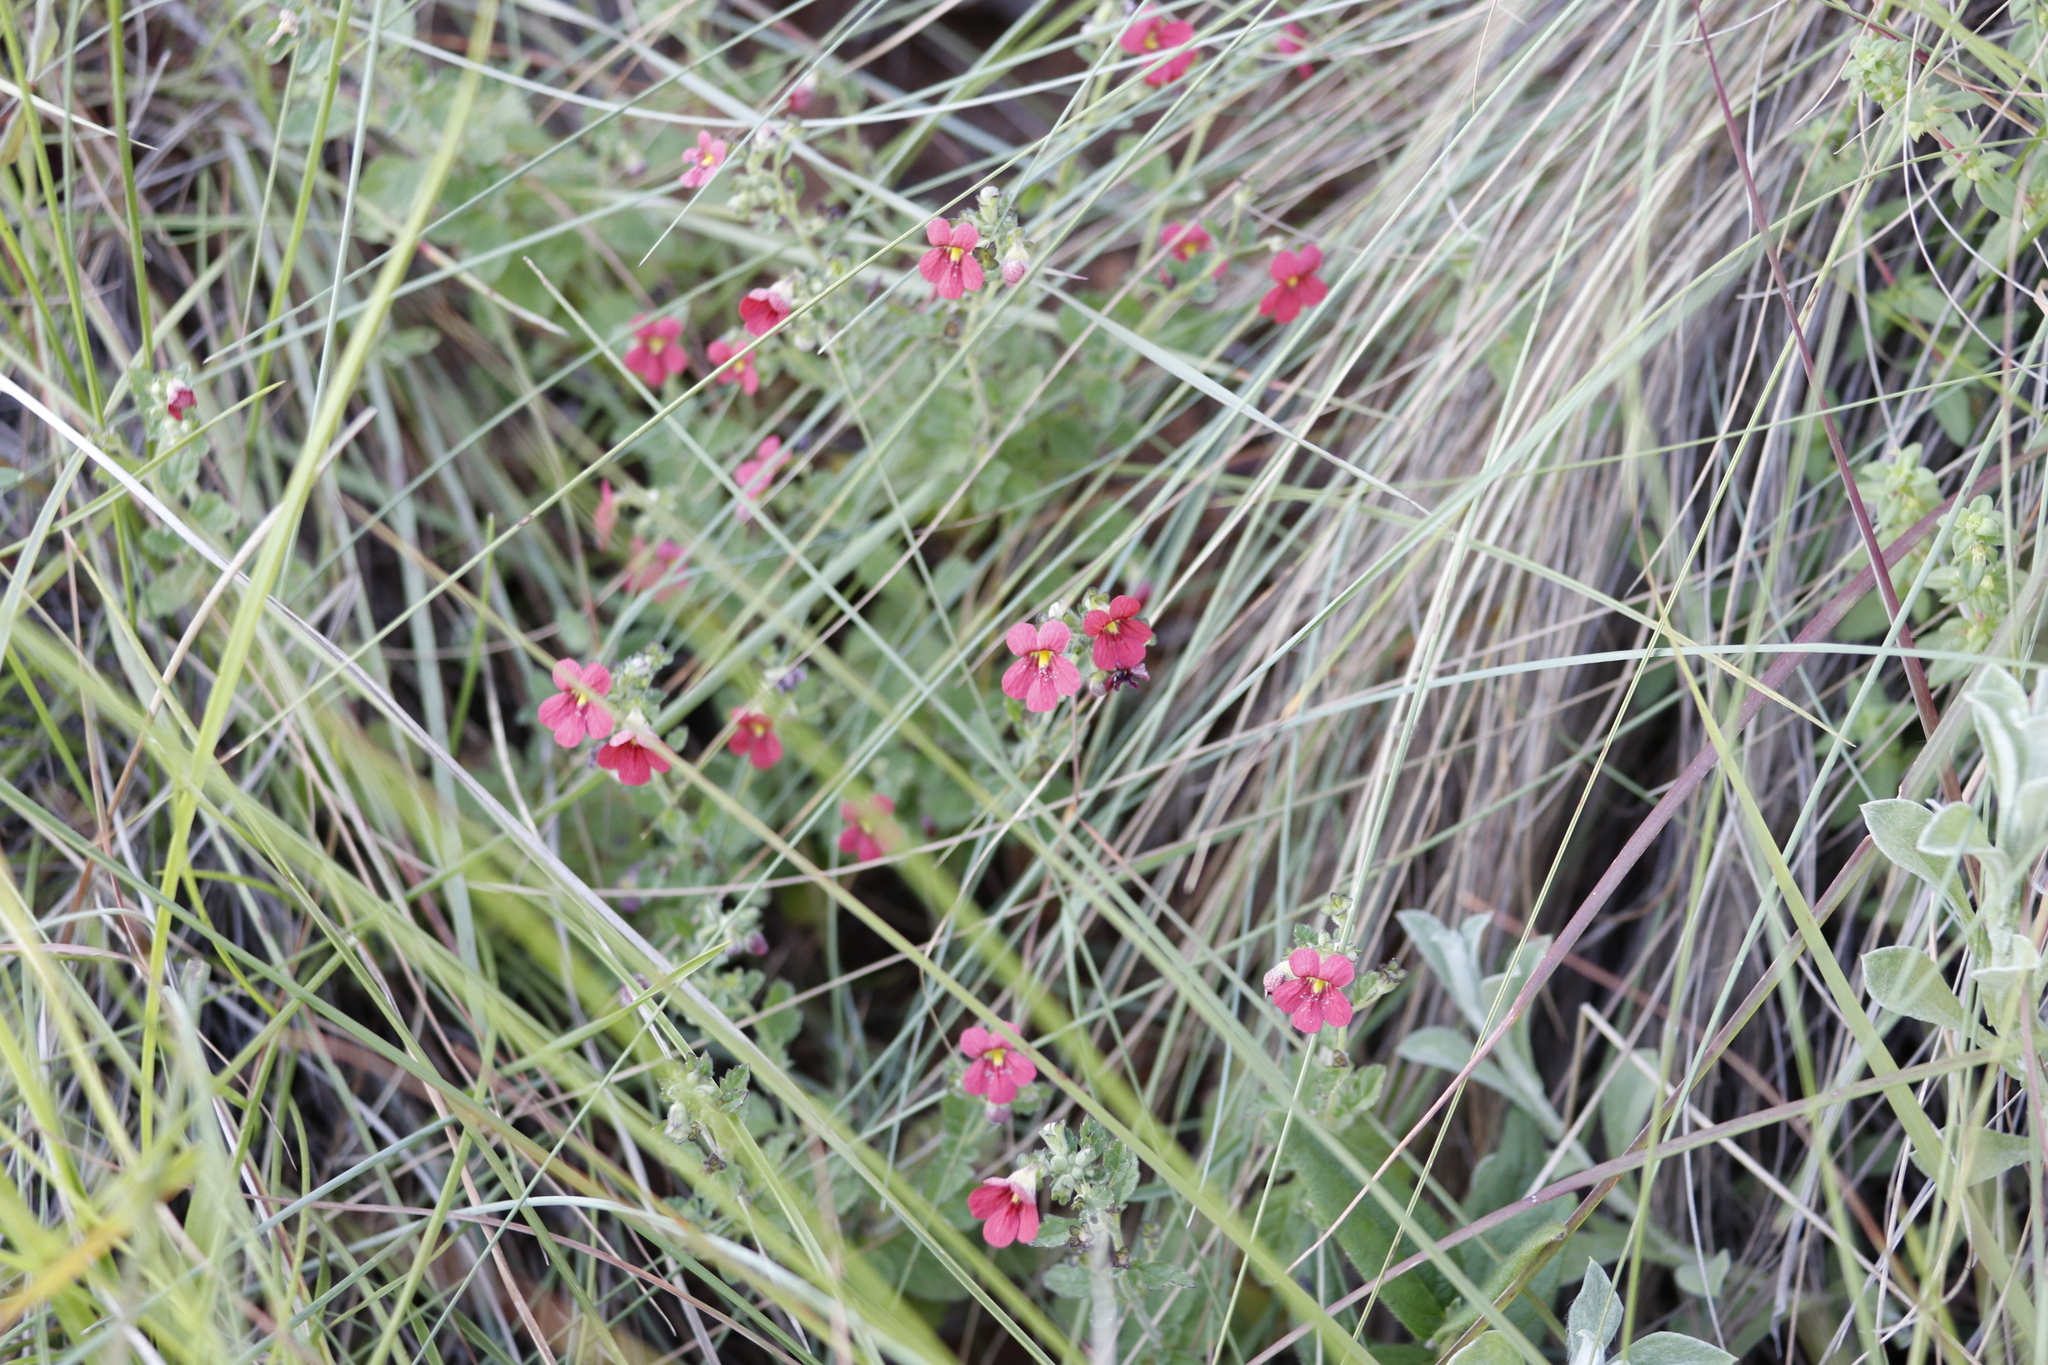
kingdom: Plantae
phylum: Tracheophyta
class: Magnoliopsida
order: Lamiales
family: Scrophulariaceae
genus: Jamesbrittenia
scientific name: Jamesbrittenia breviflora
